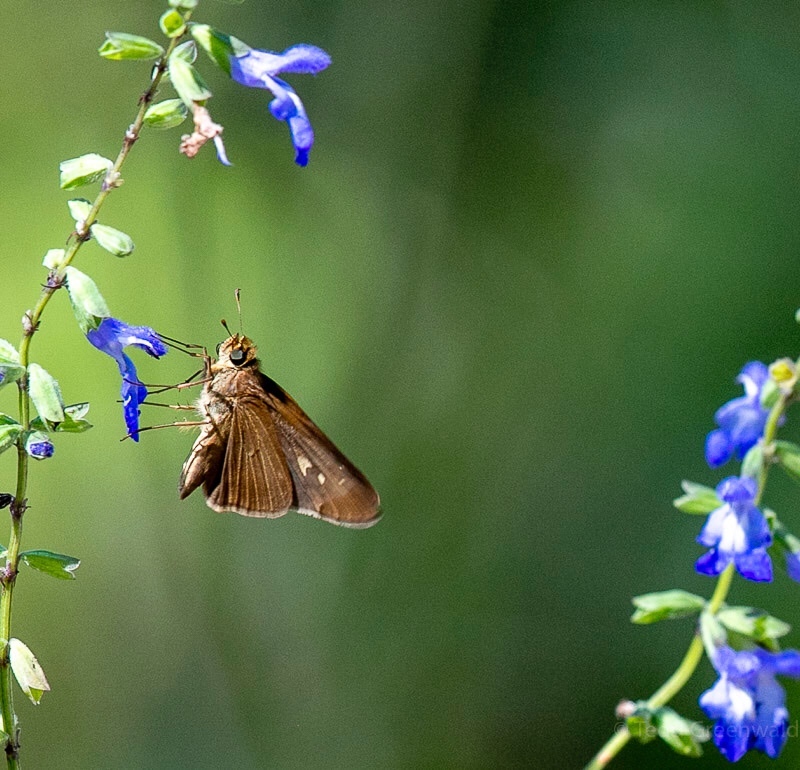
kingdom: Animalia
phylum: Arthropoda
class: Insecta
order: Lepidoptera
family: Hesperiidae
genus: Panoquina
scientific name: Panoquina ocola
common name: Ocola skipper
